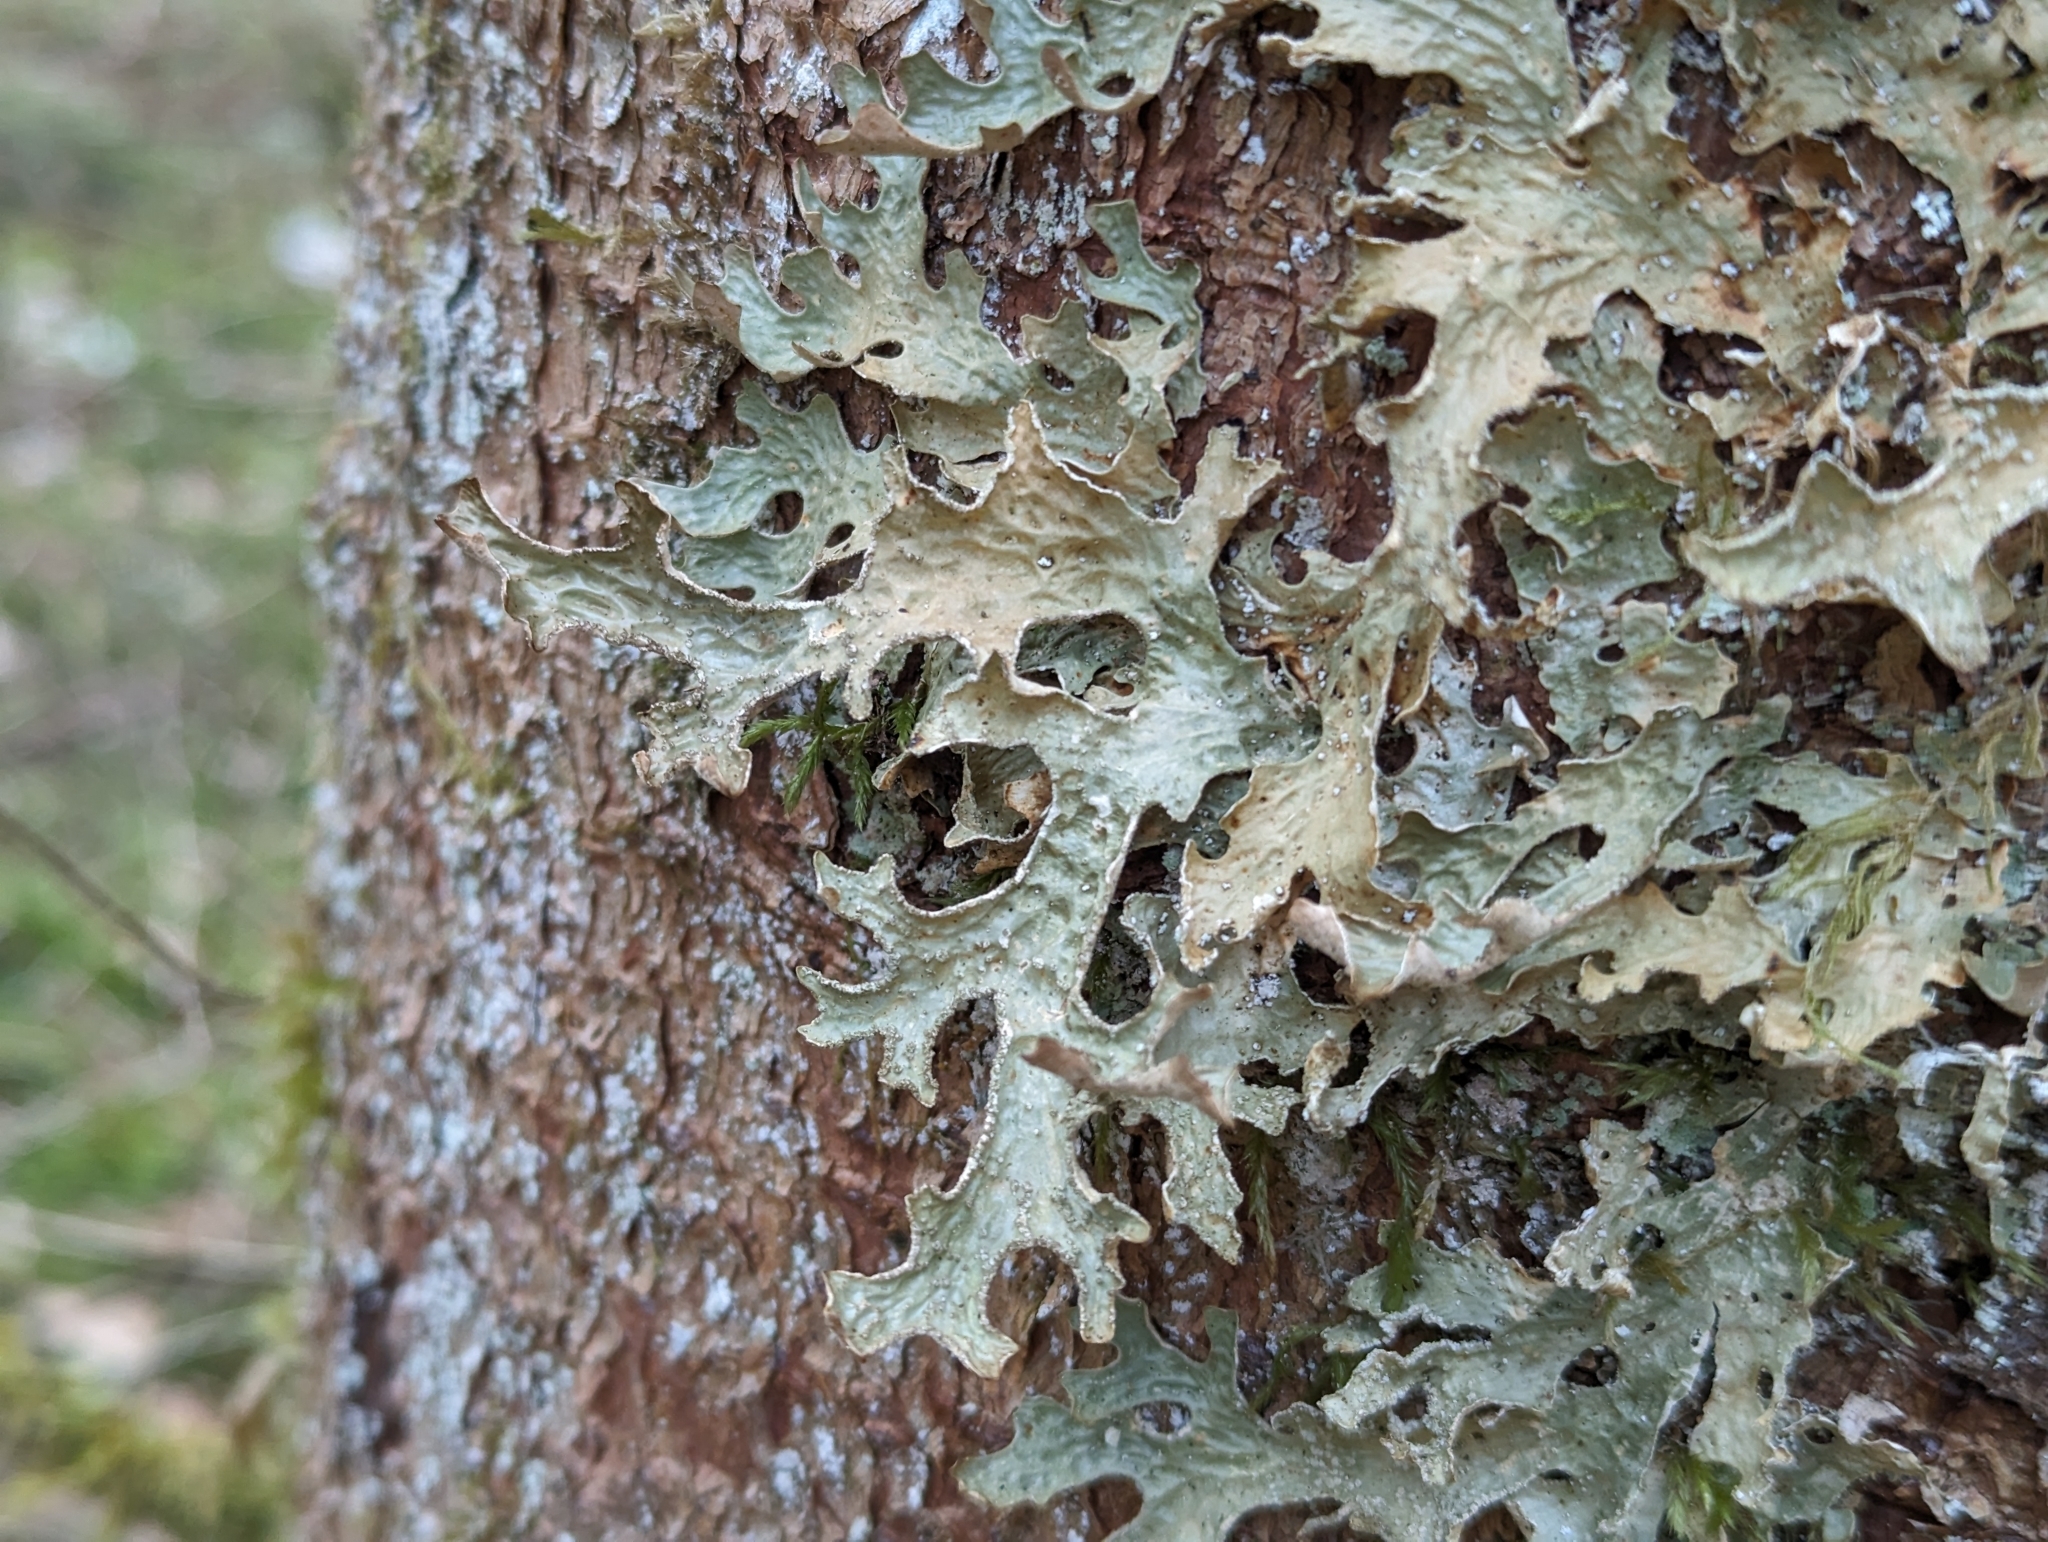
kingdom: Fungi
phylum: Ascomycota
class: Lecanoromycetes
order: Peltigerales
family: Lobariaceae
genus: Lobaria
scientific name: Lobaria pulmonaria
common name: Lungwort
